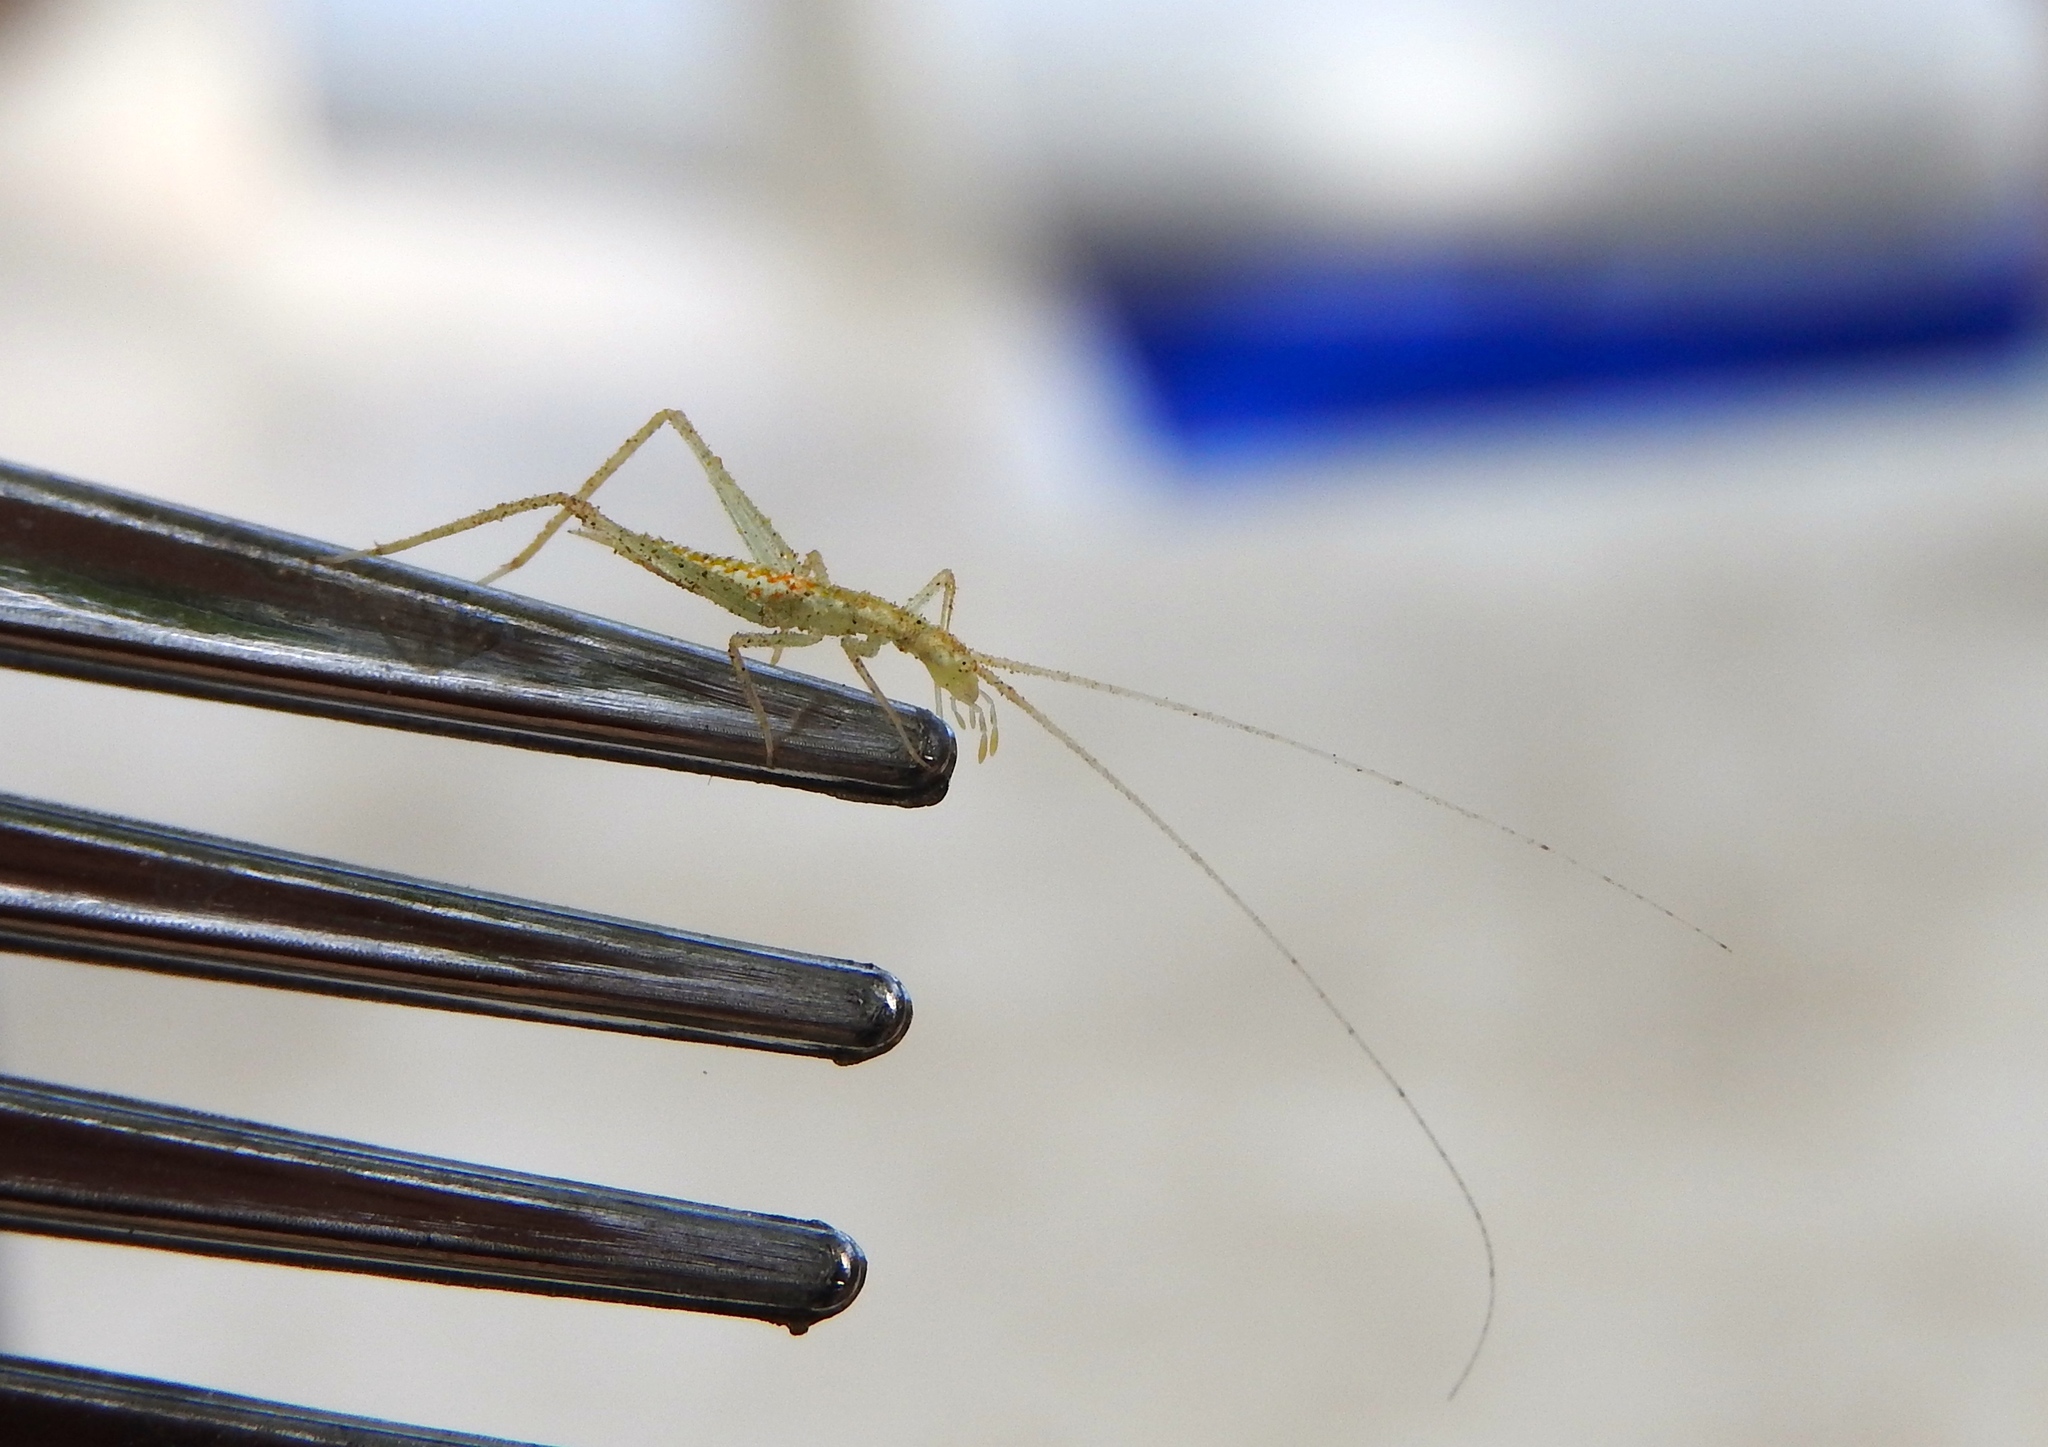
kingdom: Animalia
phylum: Arthropoda
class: Insecta
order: Orthoptera
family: Gryllidae
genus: Oecanthus
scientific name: Oecanthus
